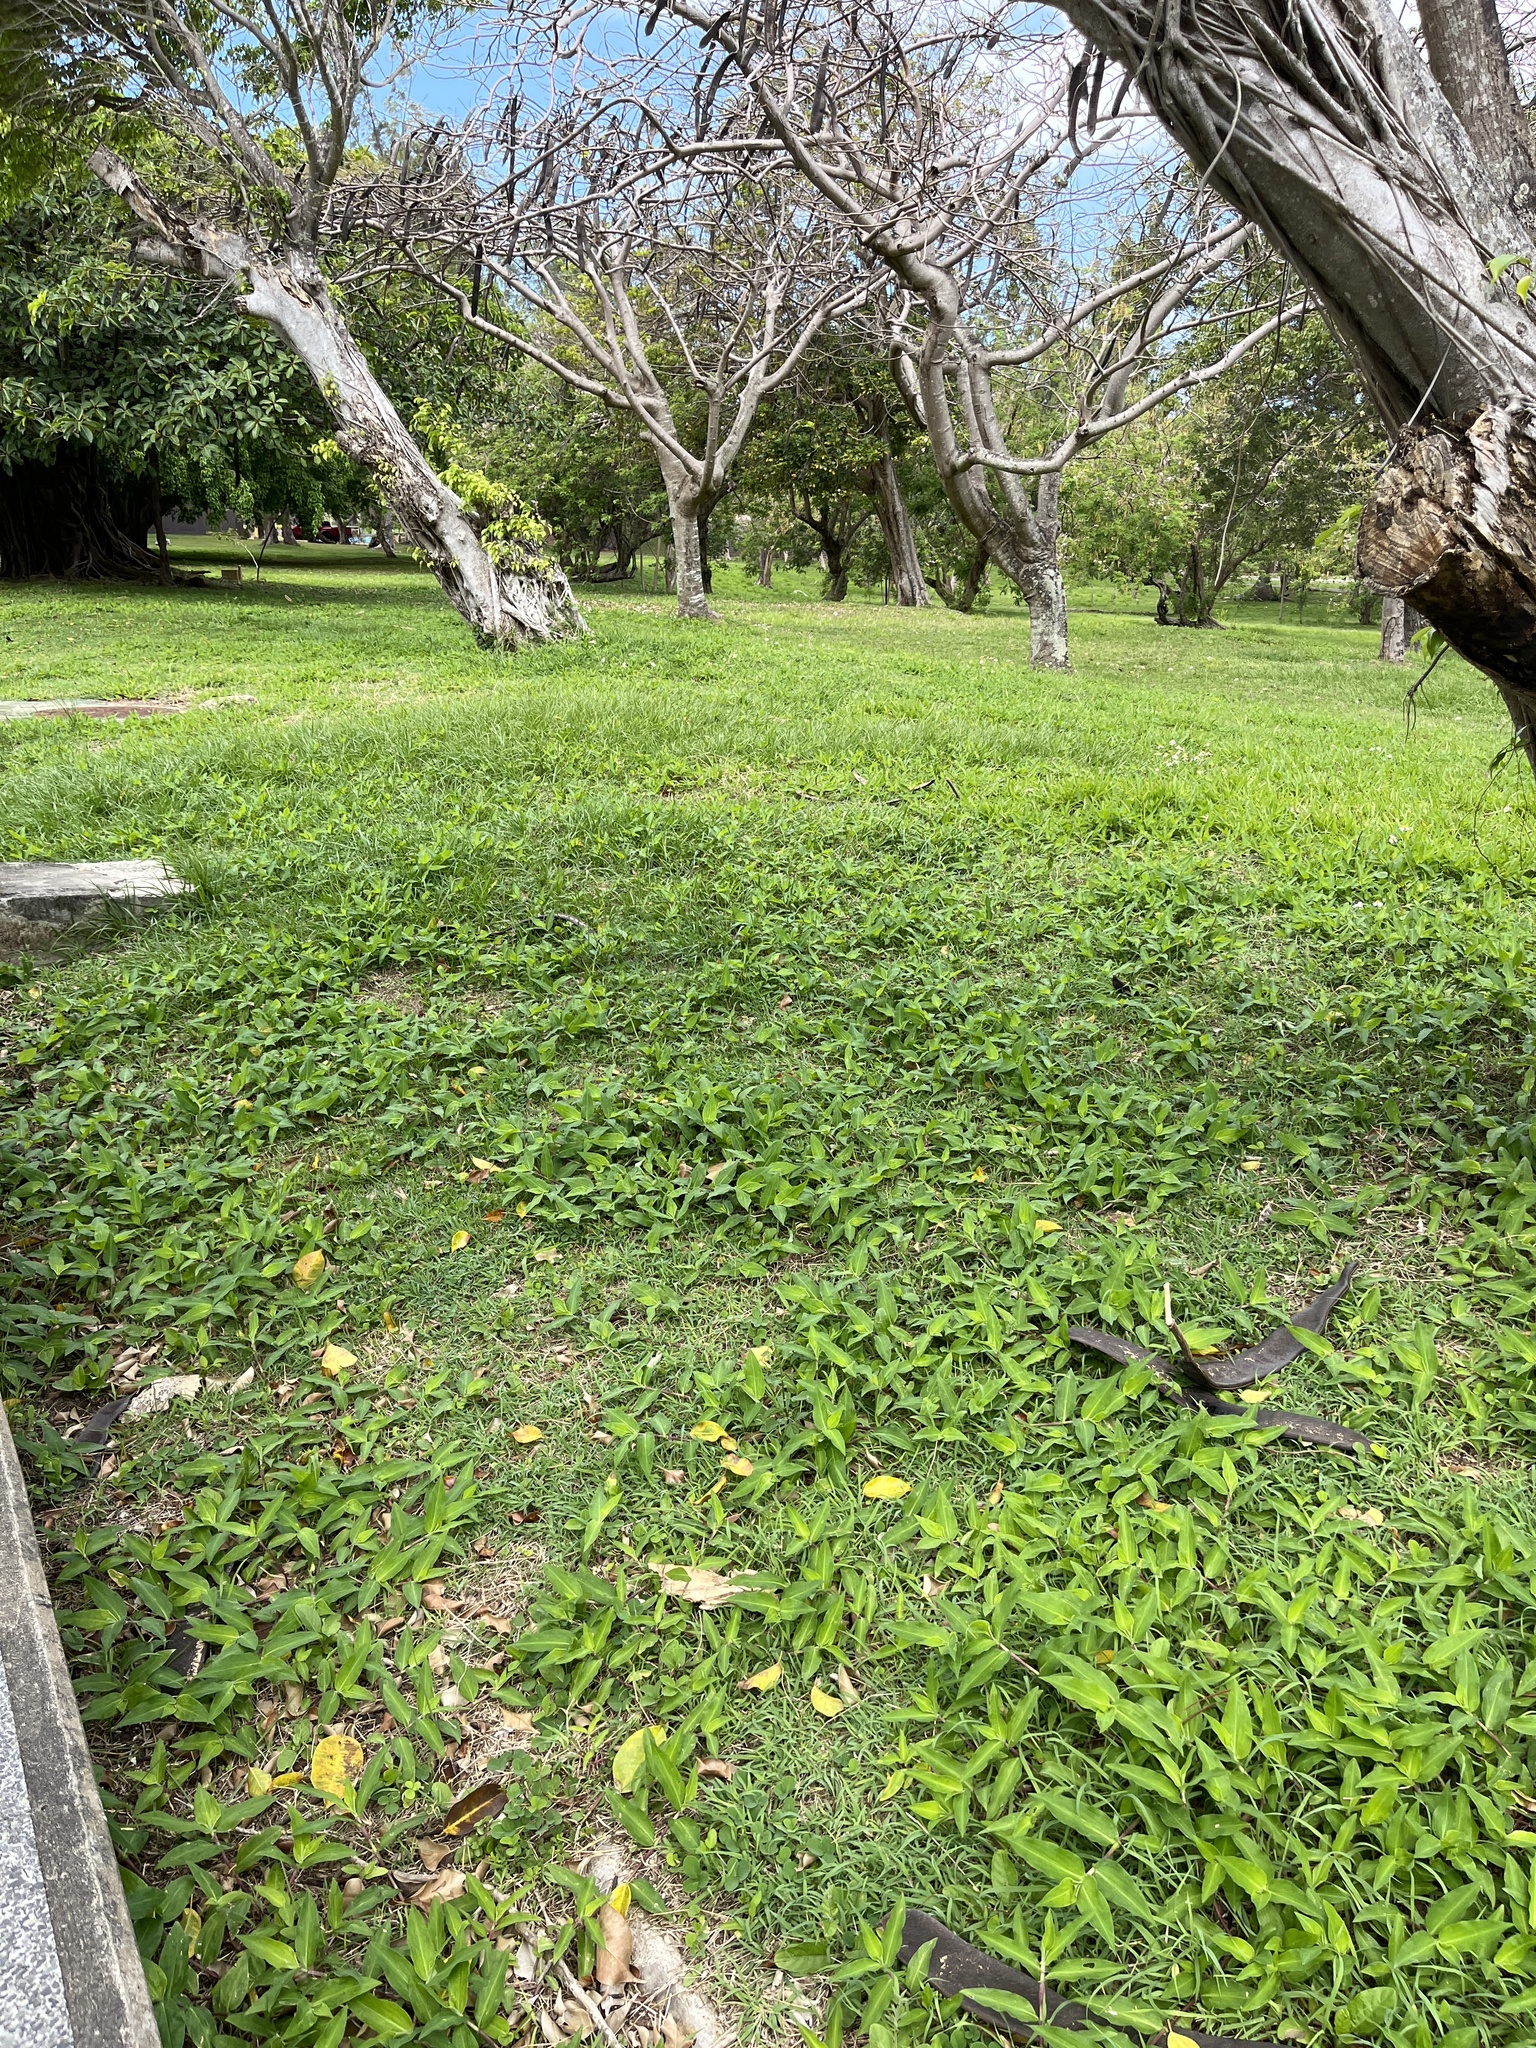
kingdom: Plantae
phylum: Tracheophyta
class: Liliopsida
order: Commelinales
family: Commelinaceae
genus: Commelina
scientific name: Commelina erecta
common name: Blousel blommetjie
